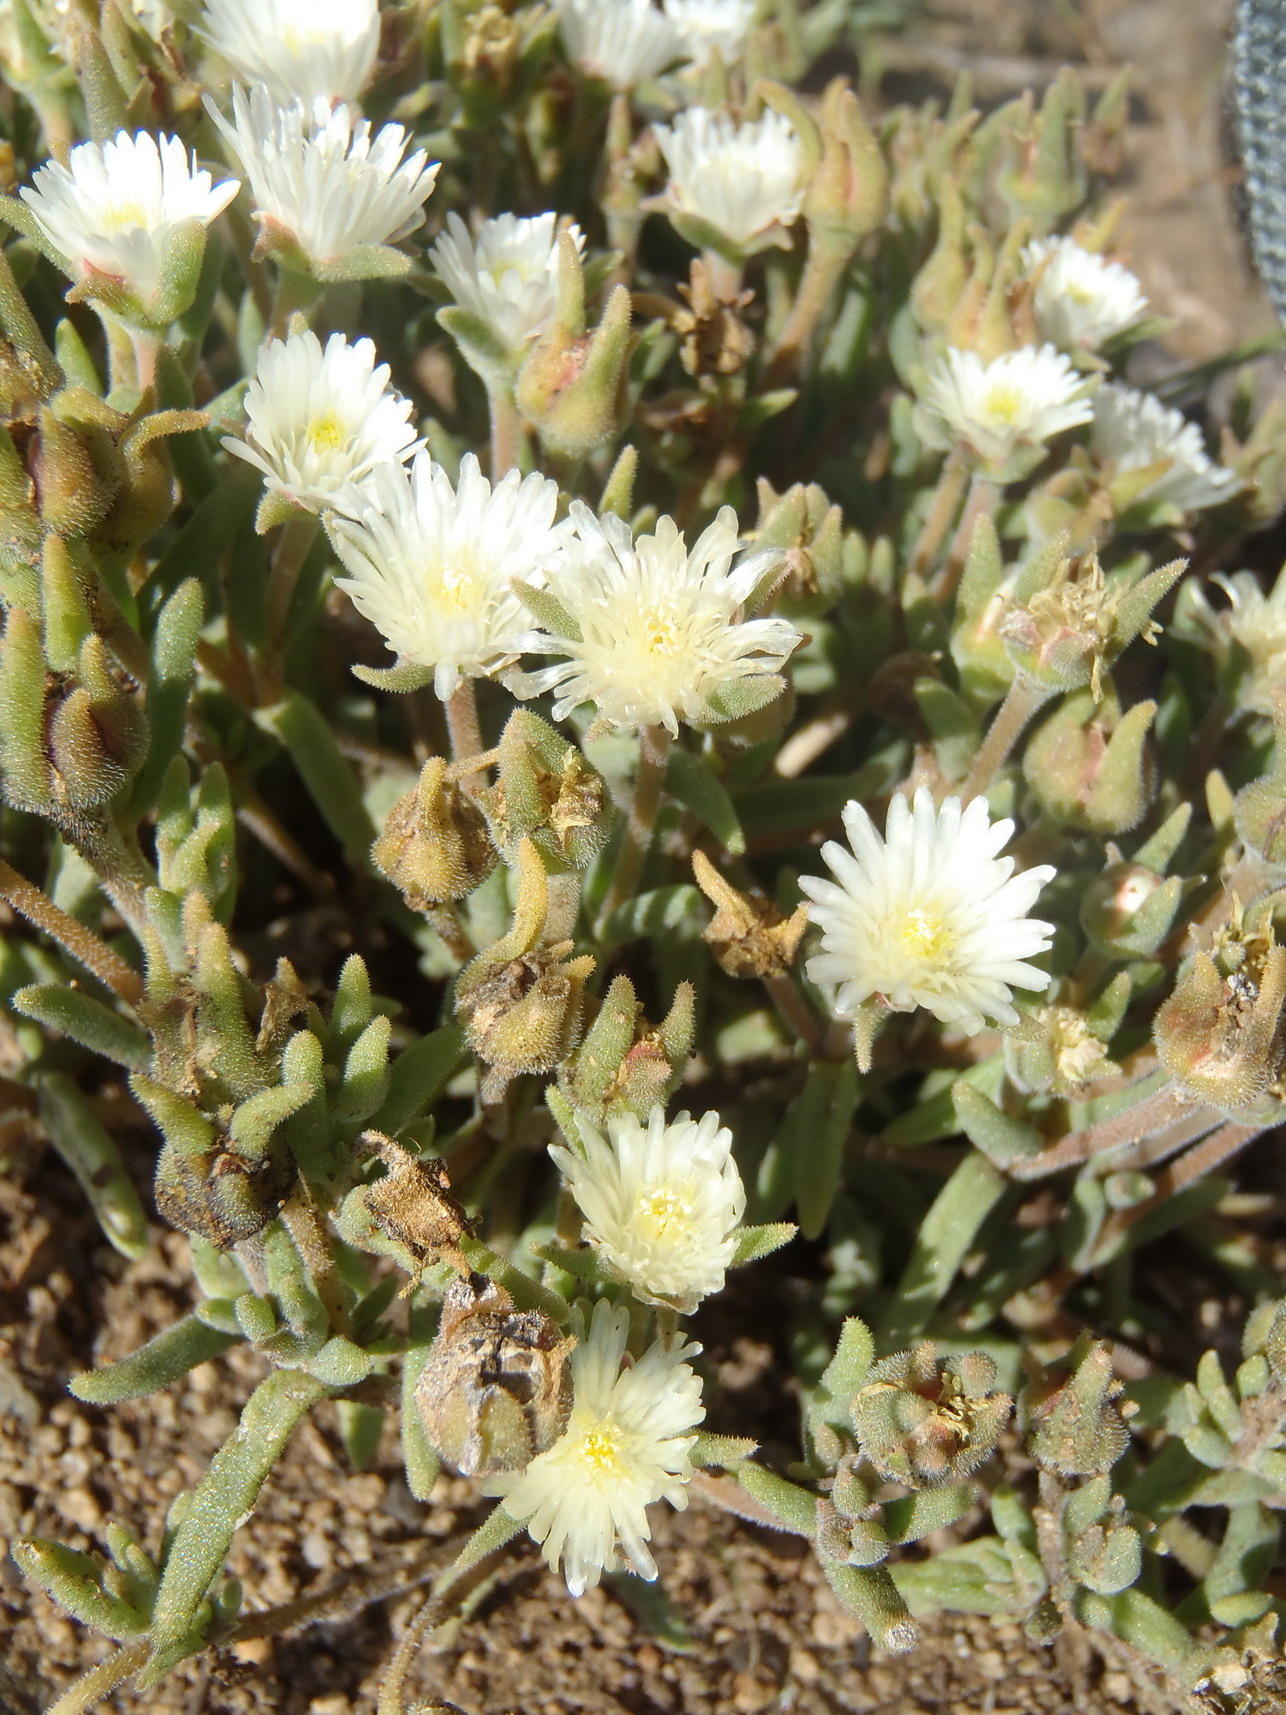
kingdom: Plantae
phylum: Tracheophyta
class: Magnoliopsida
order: Caryophyllales
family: Aizoaceae
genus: Delosperma
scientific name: Delosperma pottsii
